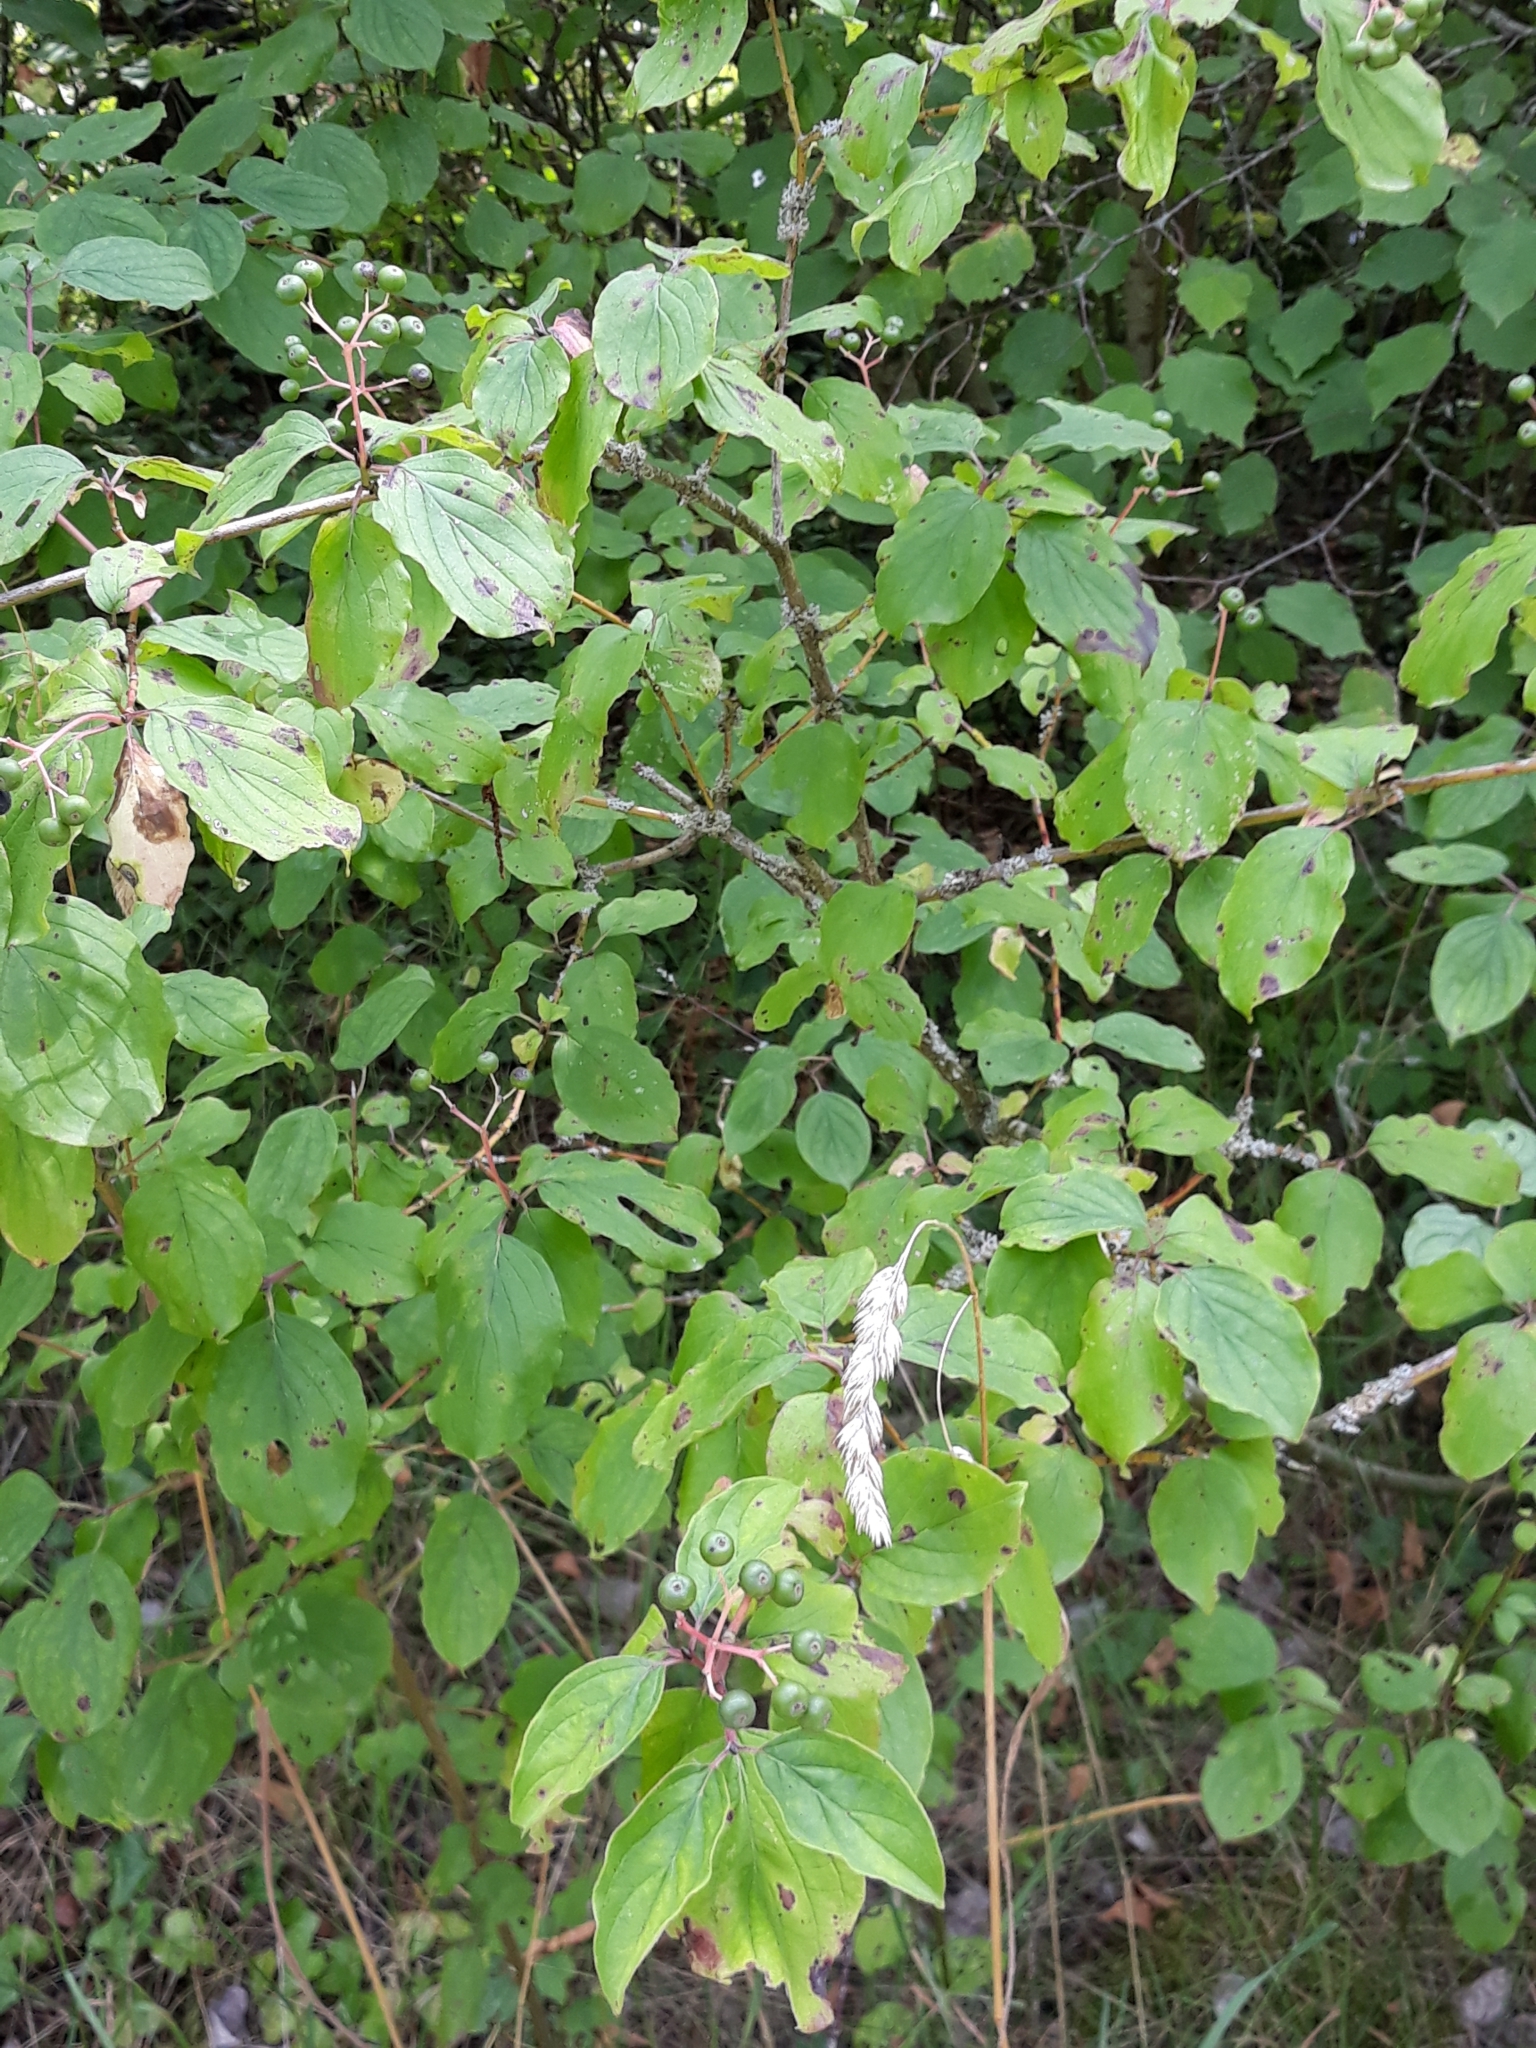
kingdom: Plantae
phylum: Tracheophyta
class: Magnoliopsida
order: Cornales
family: Cornaceae
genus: Cornus
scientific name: Cornus sanguinea
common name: Dogwood
